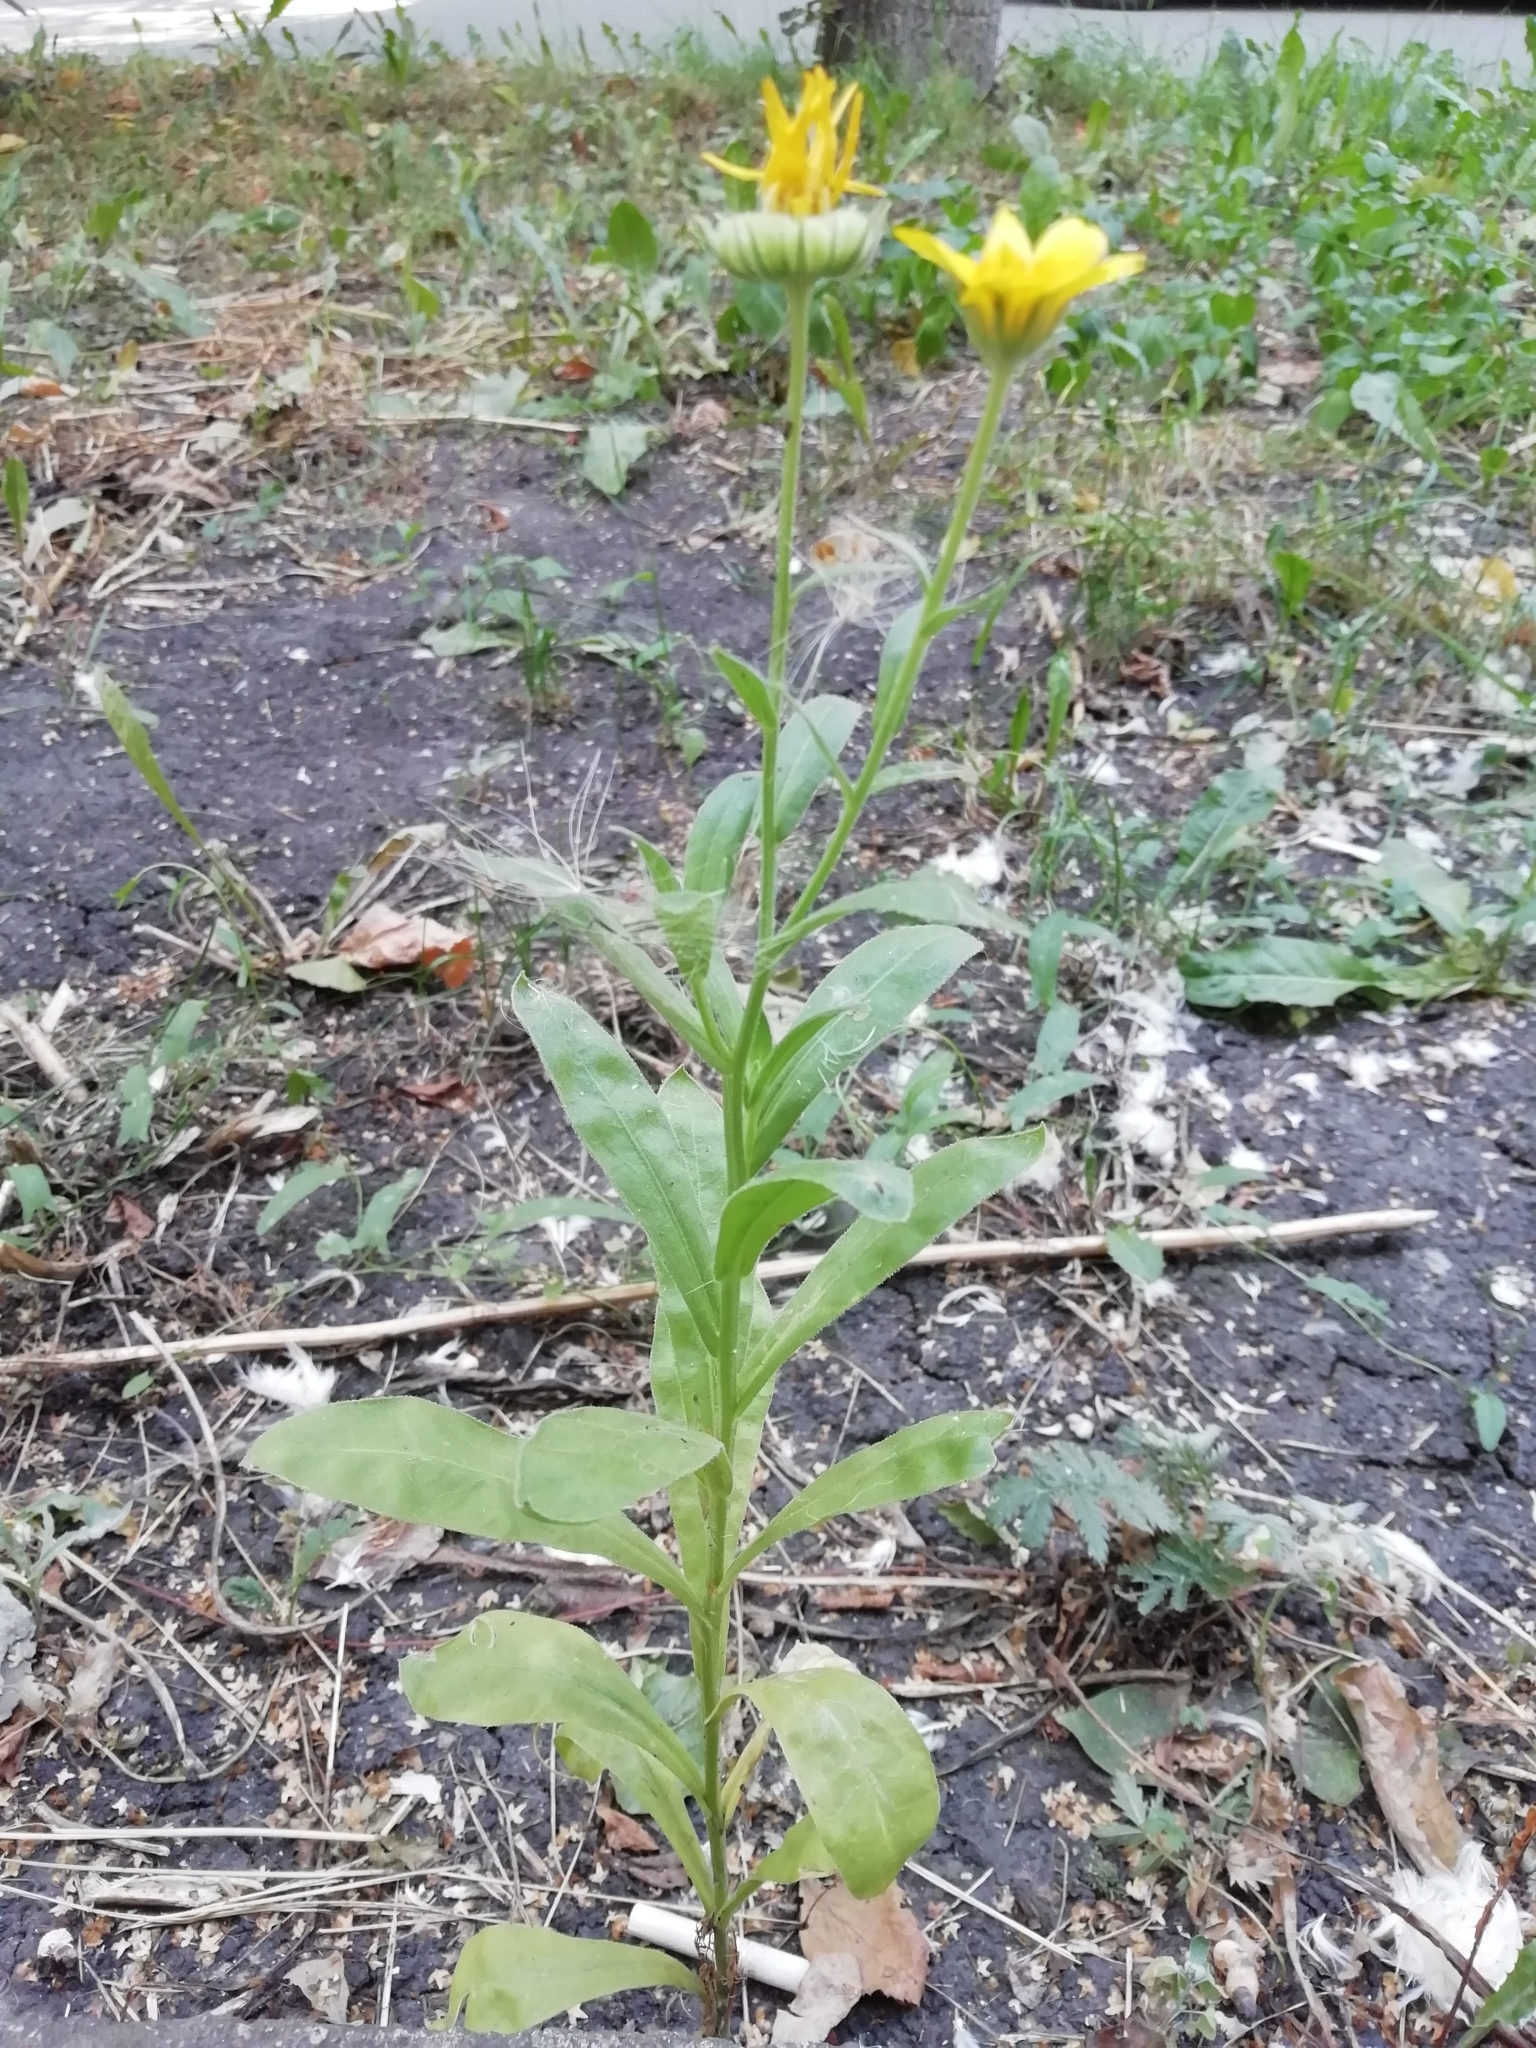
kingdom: Plantae
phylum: Tracheophyta
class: Magnoliopsida
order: Asterales
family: Asteraceae
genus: Calendula
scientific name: Calendula officinalis
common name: Pot marigold
